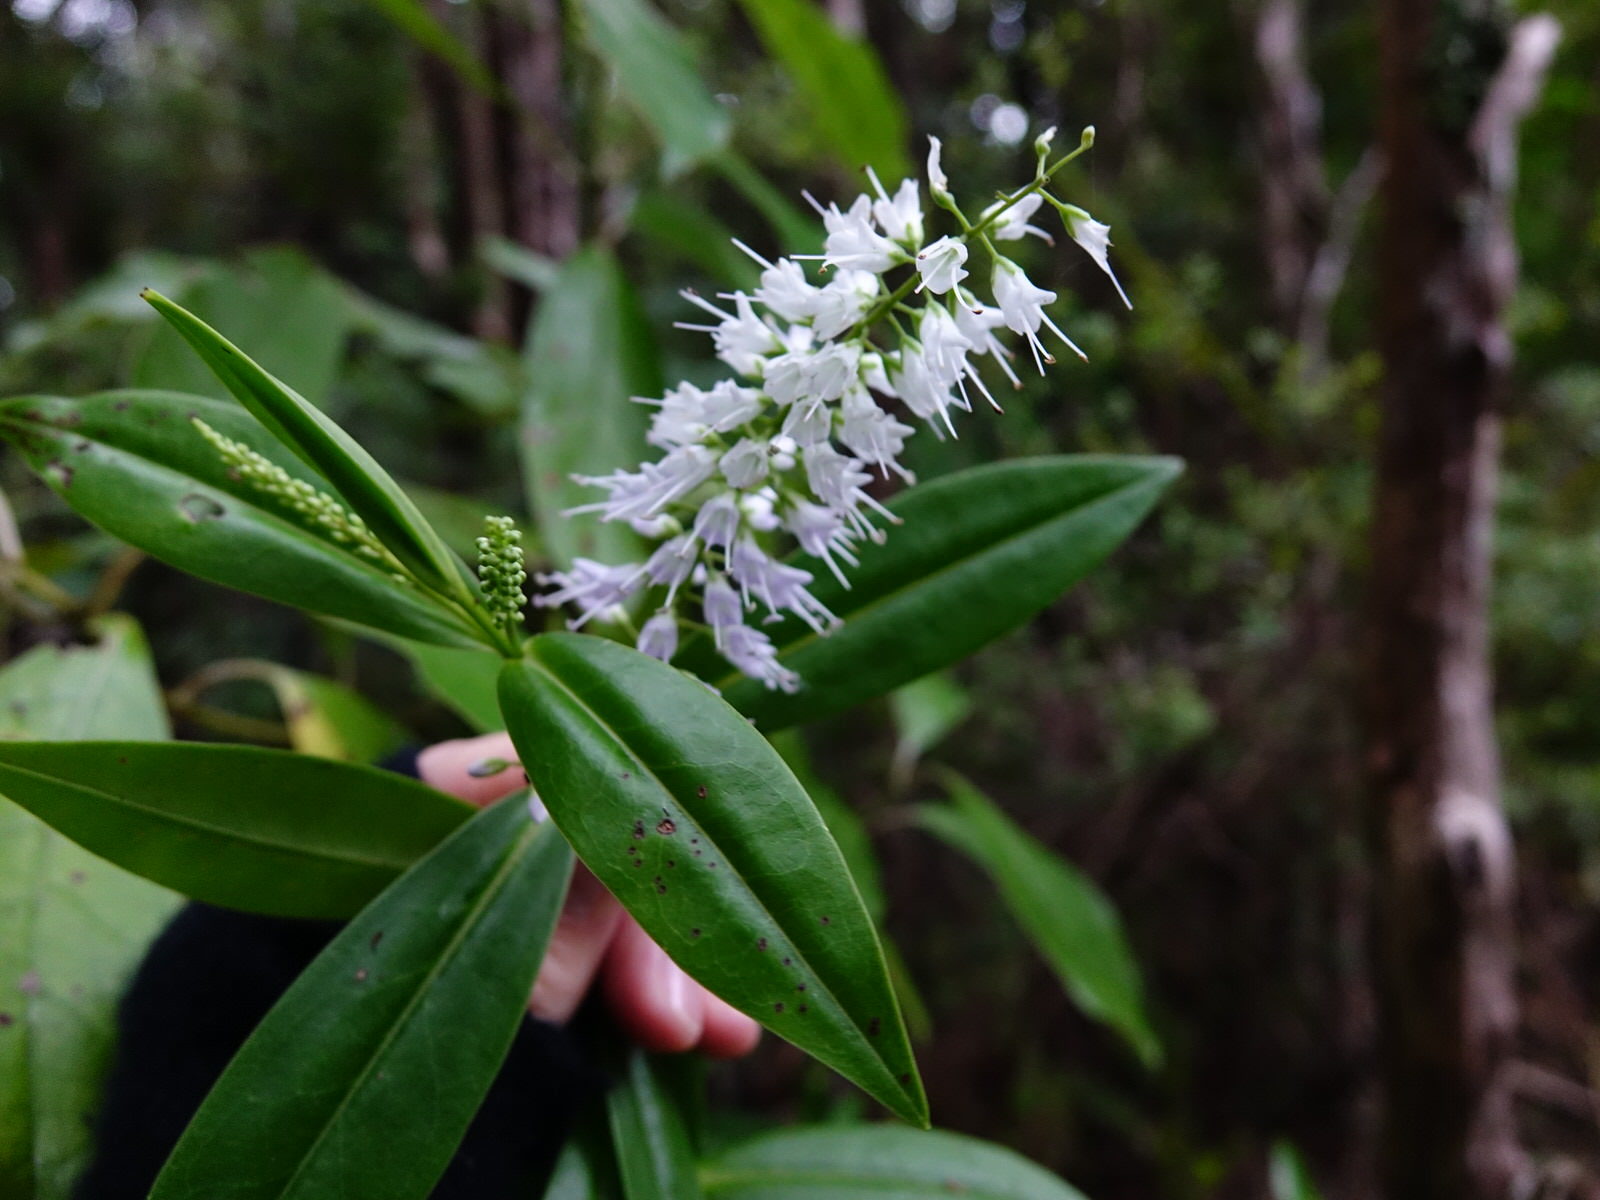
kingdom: Plantae
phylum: Tracheophyta
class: Magnoliopsida
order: Lamiales
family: Plantaginaceae
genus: Veronica
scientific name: Veronica macrocarpa
